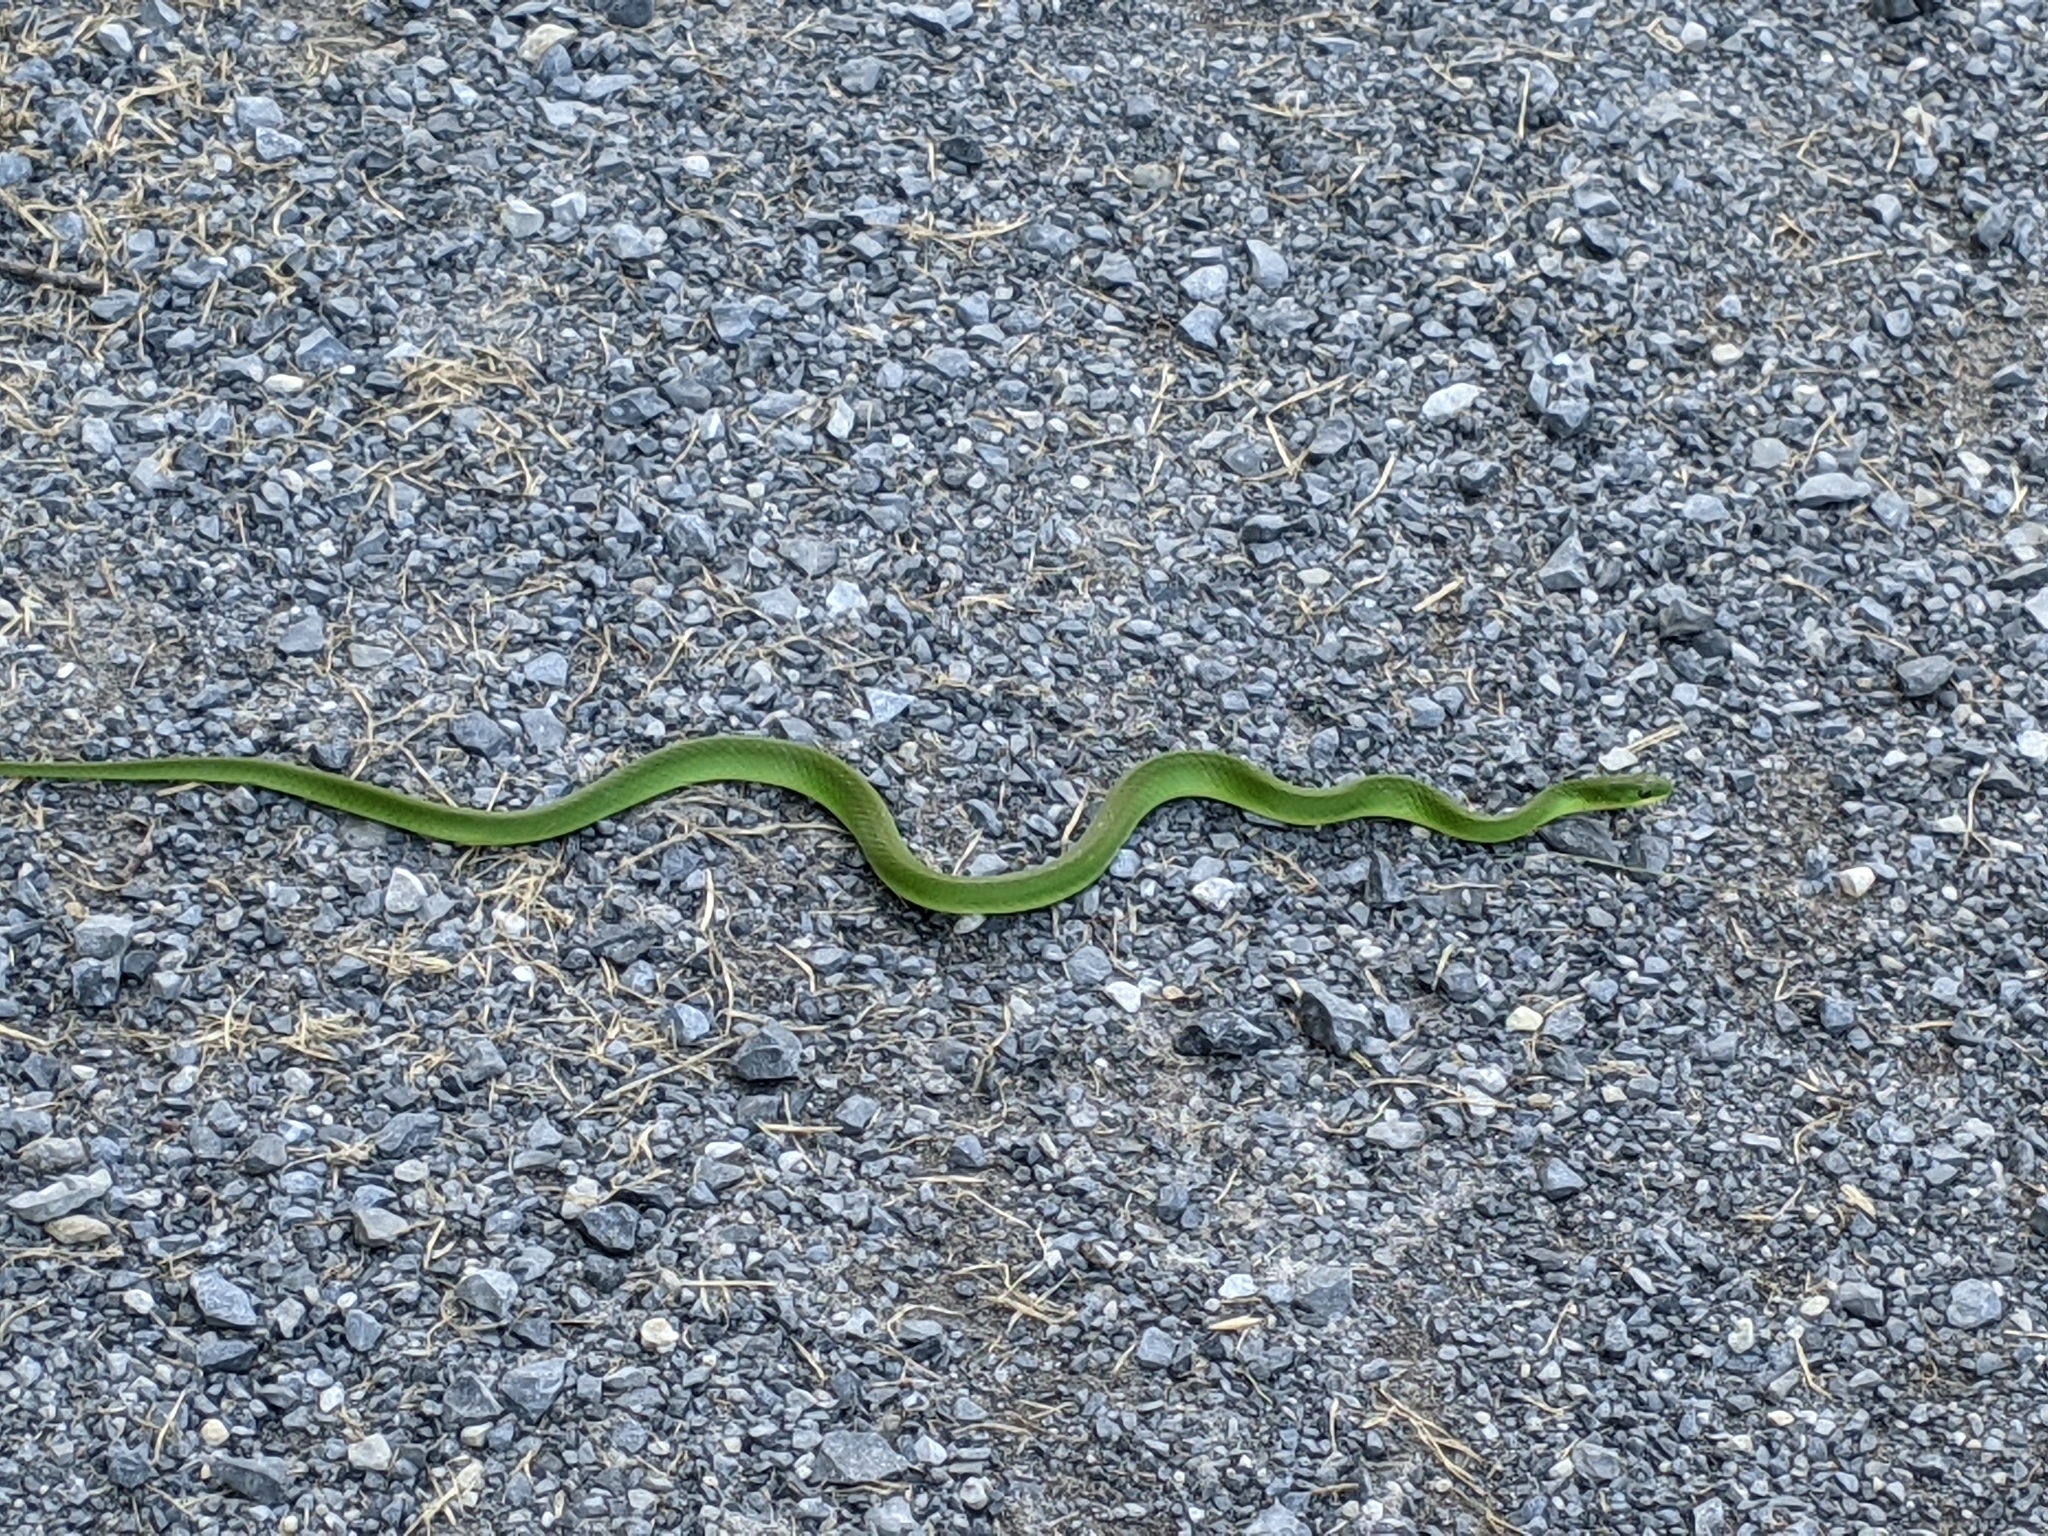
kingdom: Animalia
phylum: Chordata
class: Squamata
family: Colubridae
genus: Opheodrys
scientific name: Opheodrys vernalis
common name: Smooth green snake
